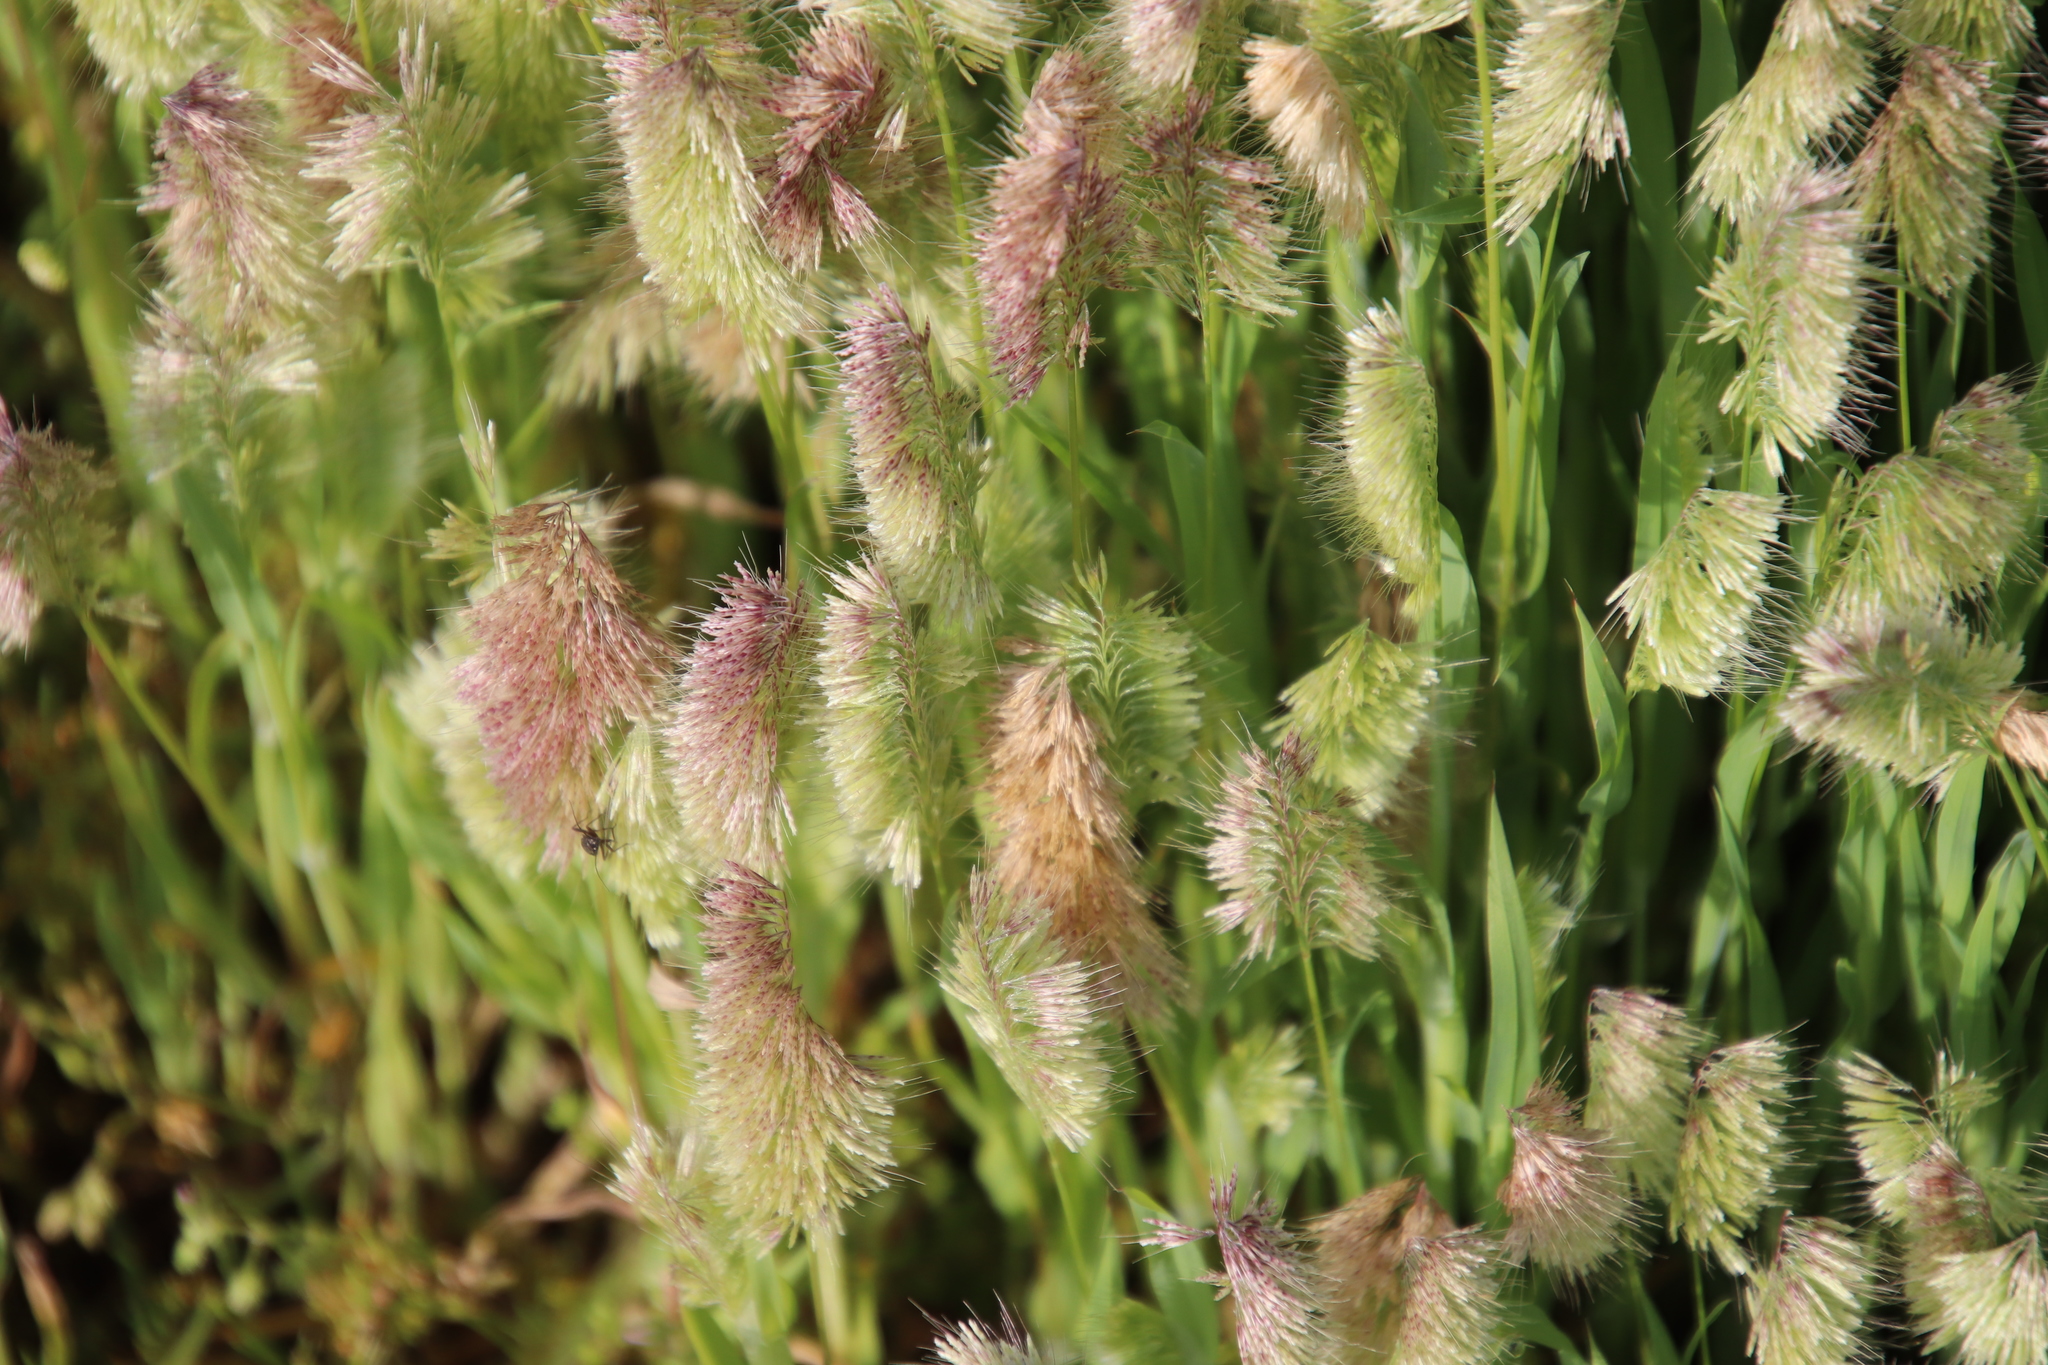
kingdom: Plantae
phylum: Tracheophyta
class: Liliopsida
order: Poales
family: Poaceae
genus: Lamarckia
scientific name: Lamarckia aurea
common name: Golden dog's-tail
